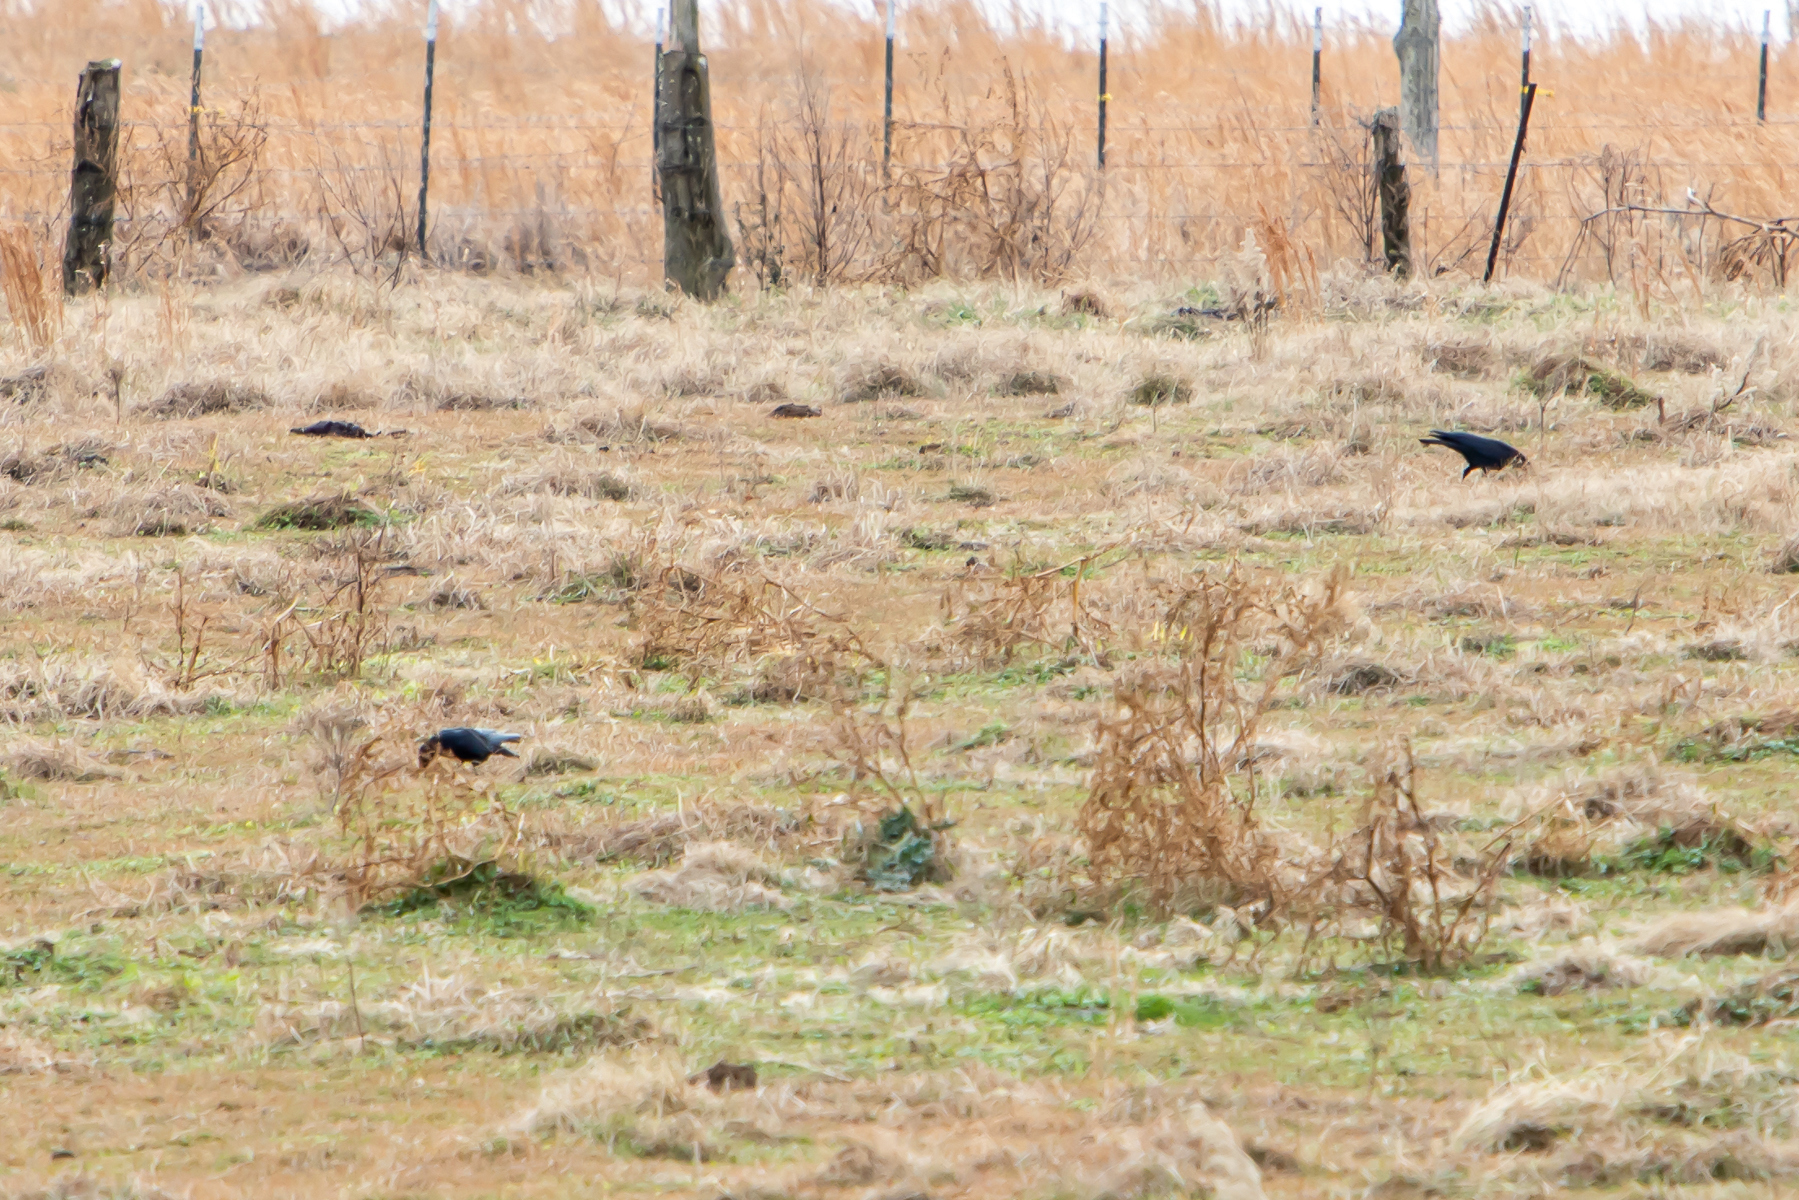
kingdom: Animalia
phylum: Chordata
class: Aves
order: Passeriformes
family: Corvidae
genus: Corvus
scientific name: Corvus brachyrhynchos
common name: American crow
